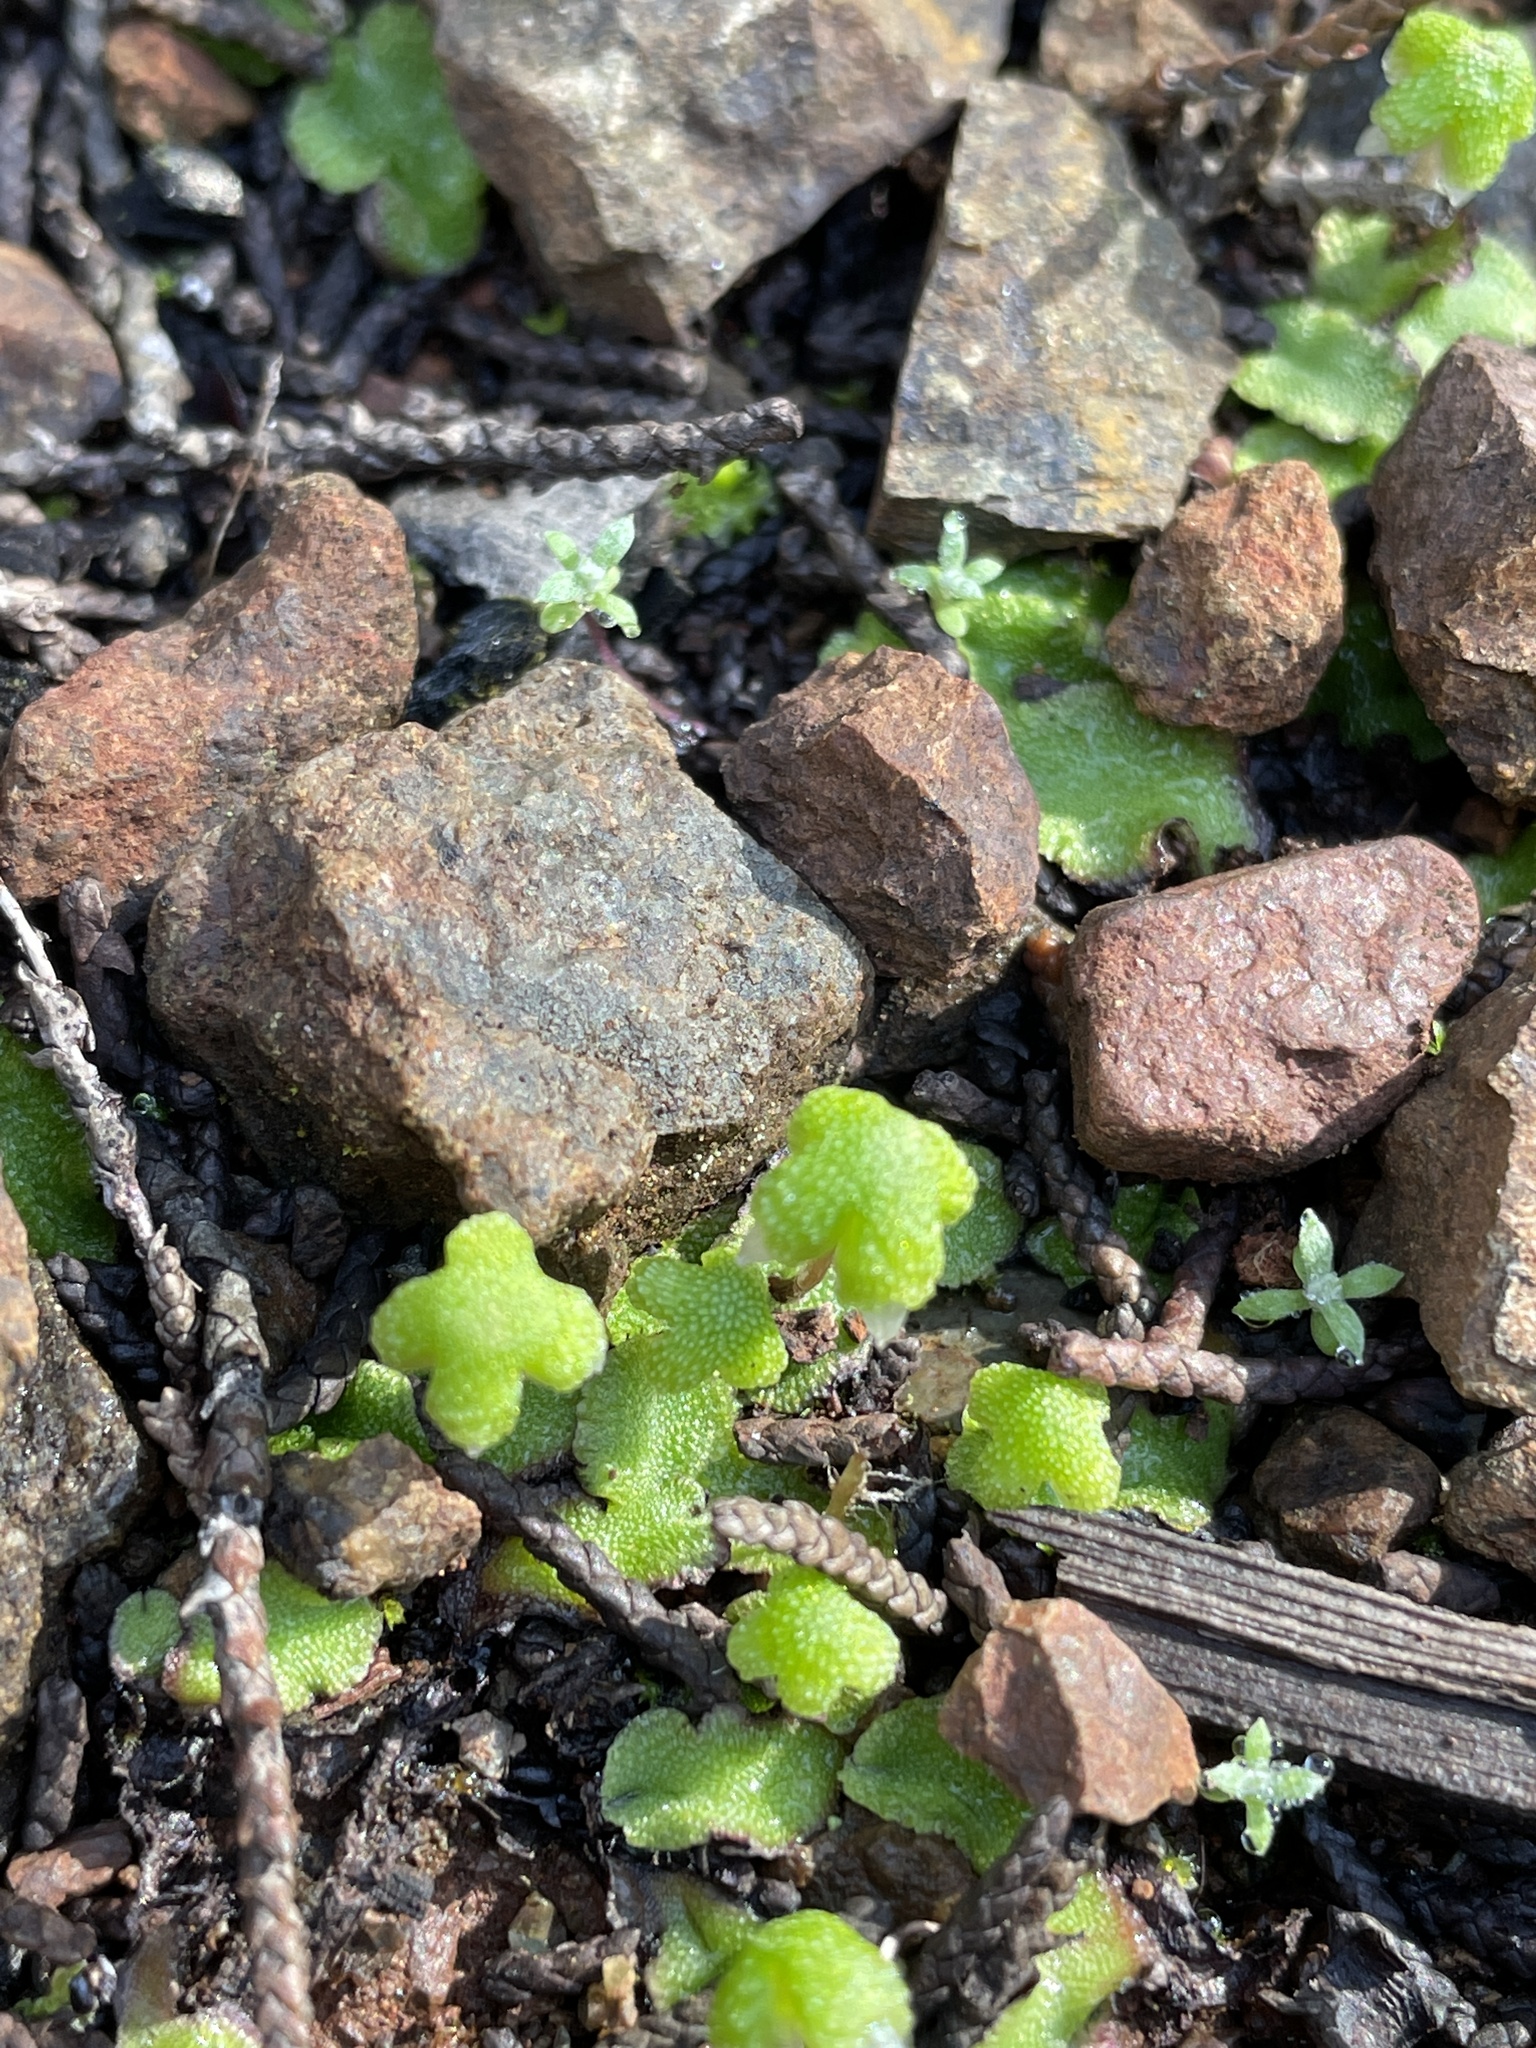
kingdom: Plantae
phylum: Marchantiophyta
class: Marchantiopsida
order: Marchantiales
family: Aytoniaceae
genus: Asterella
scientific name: Asterella californica
